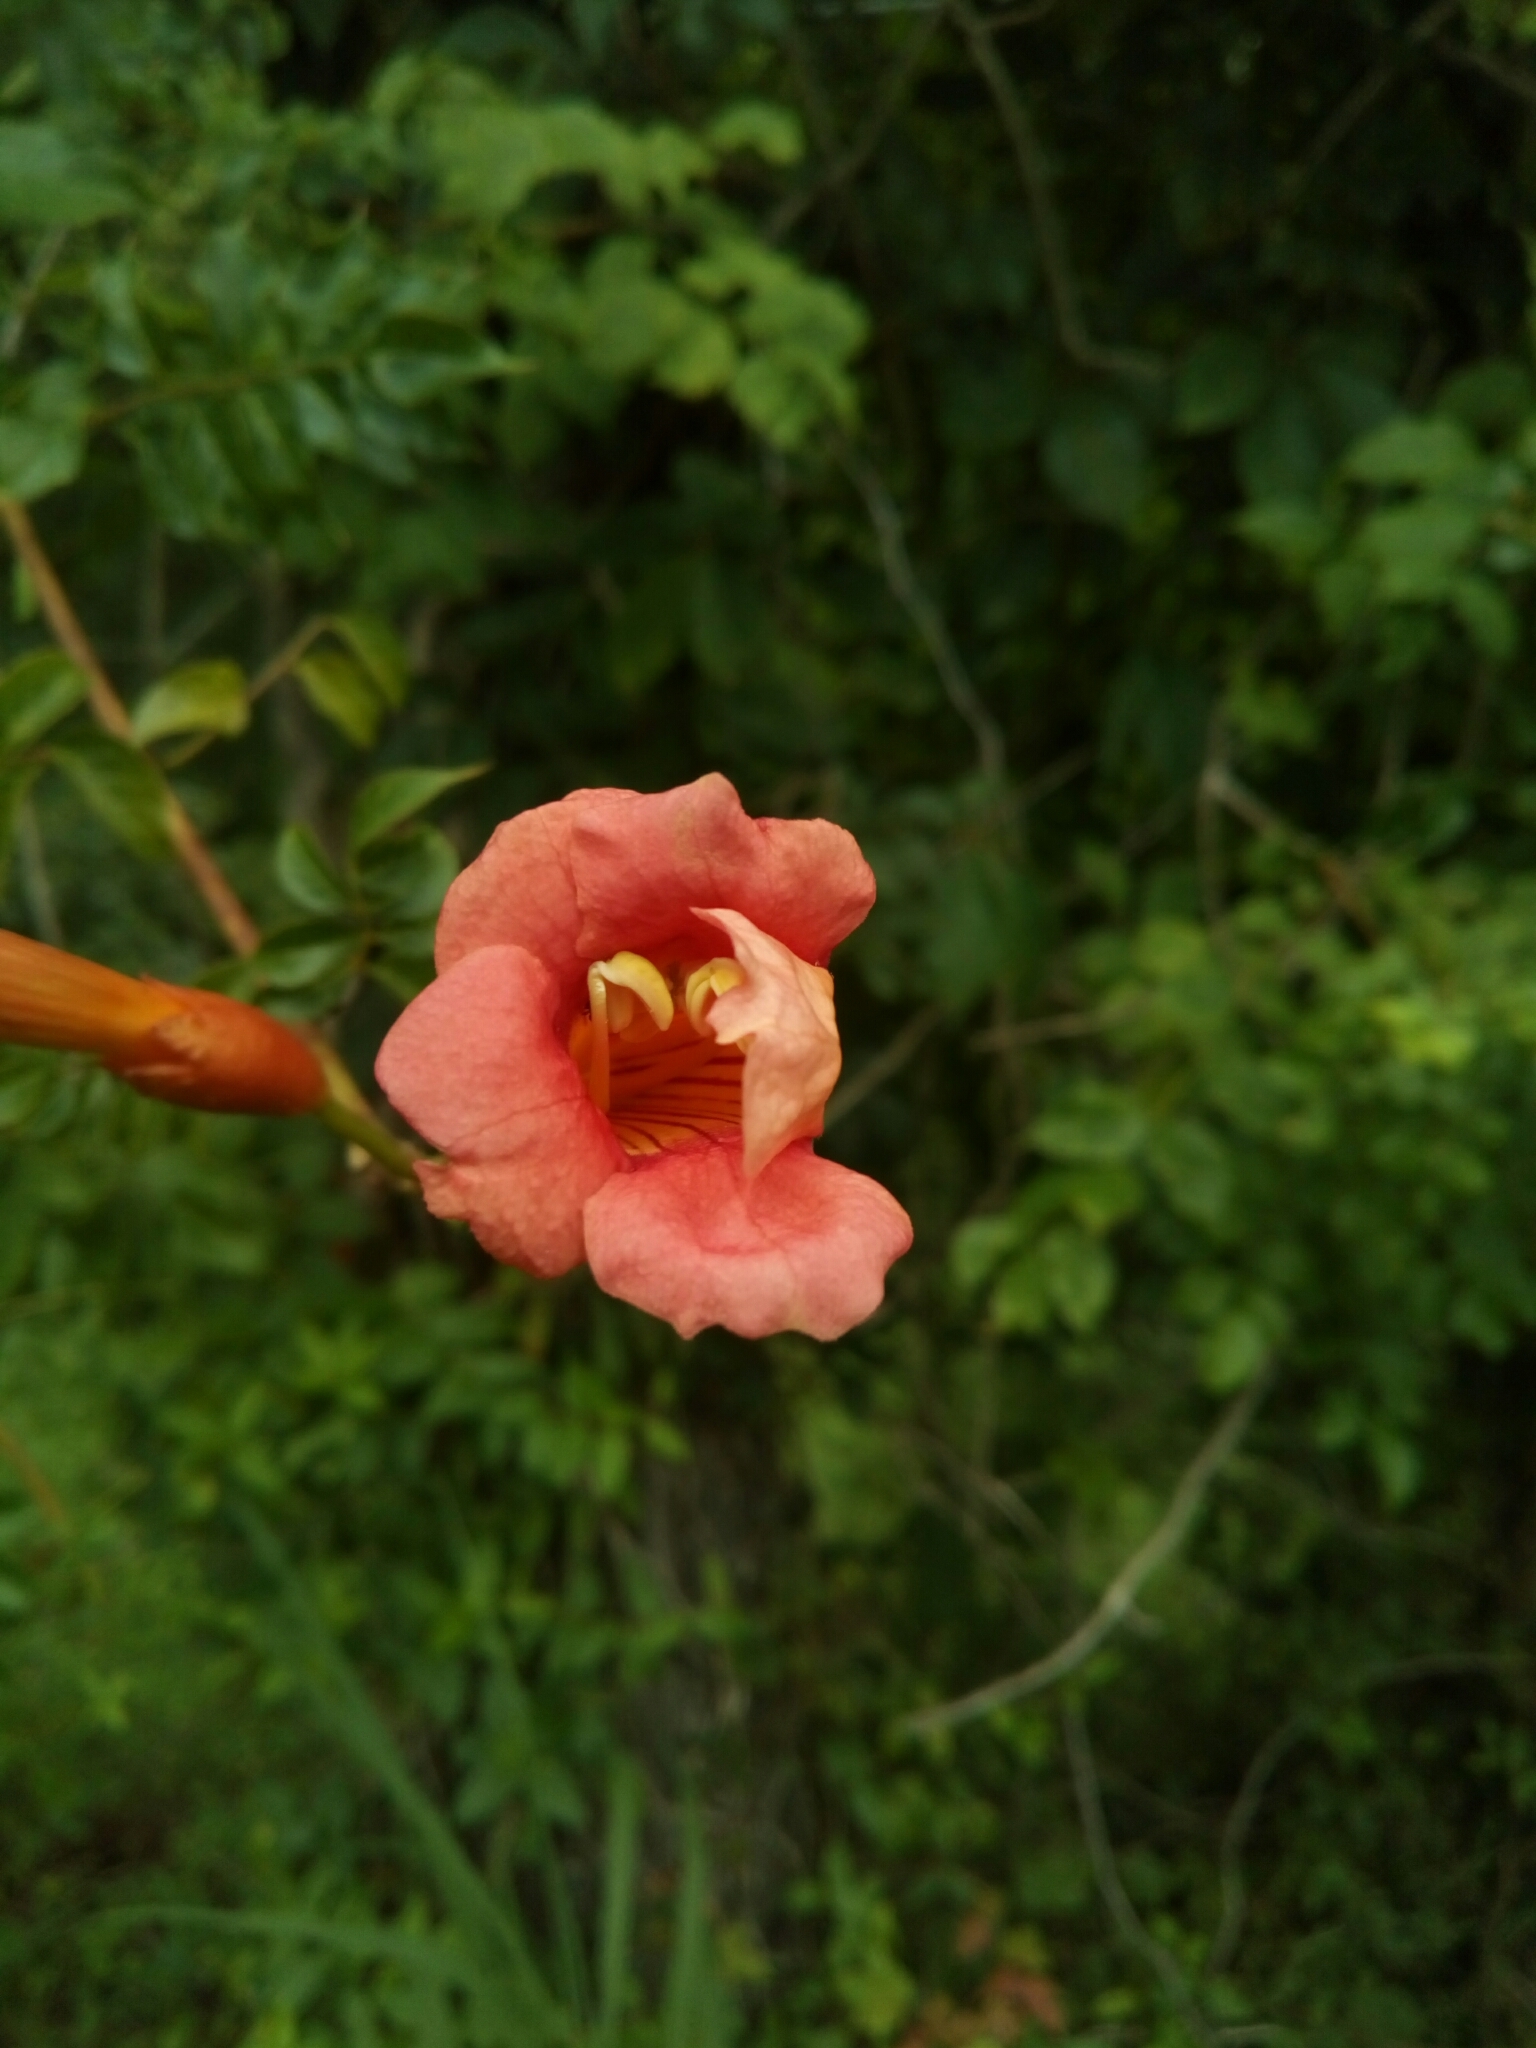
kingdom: Plantae
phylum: Tracheophyta
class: Magnoliopsida
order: Lamiales
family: Bignoniaceae
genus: Campsis
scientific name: Campsis radicans
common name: Trumpet-creeper
